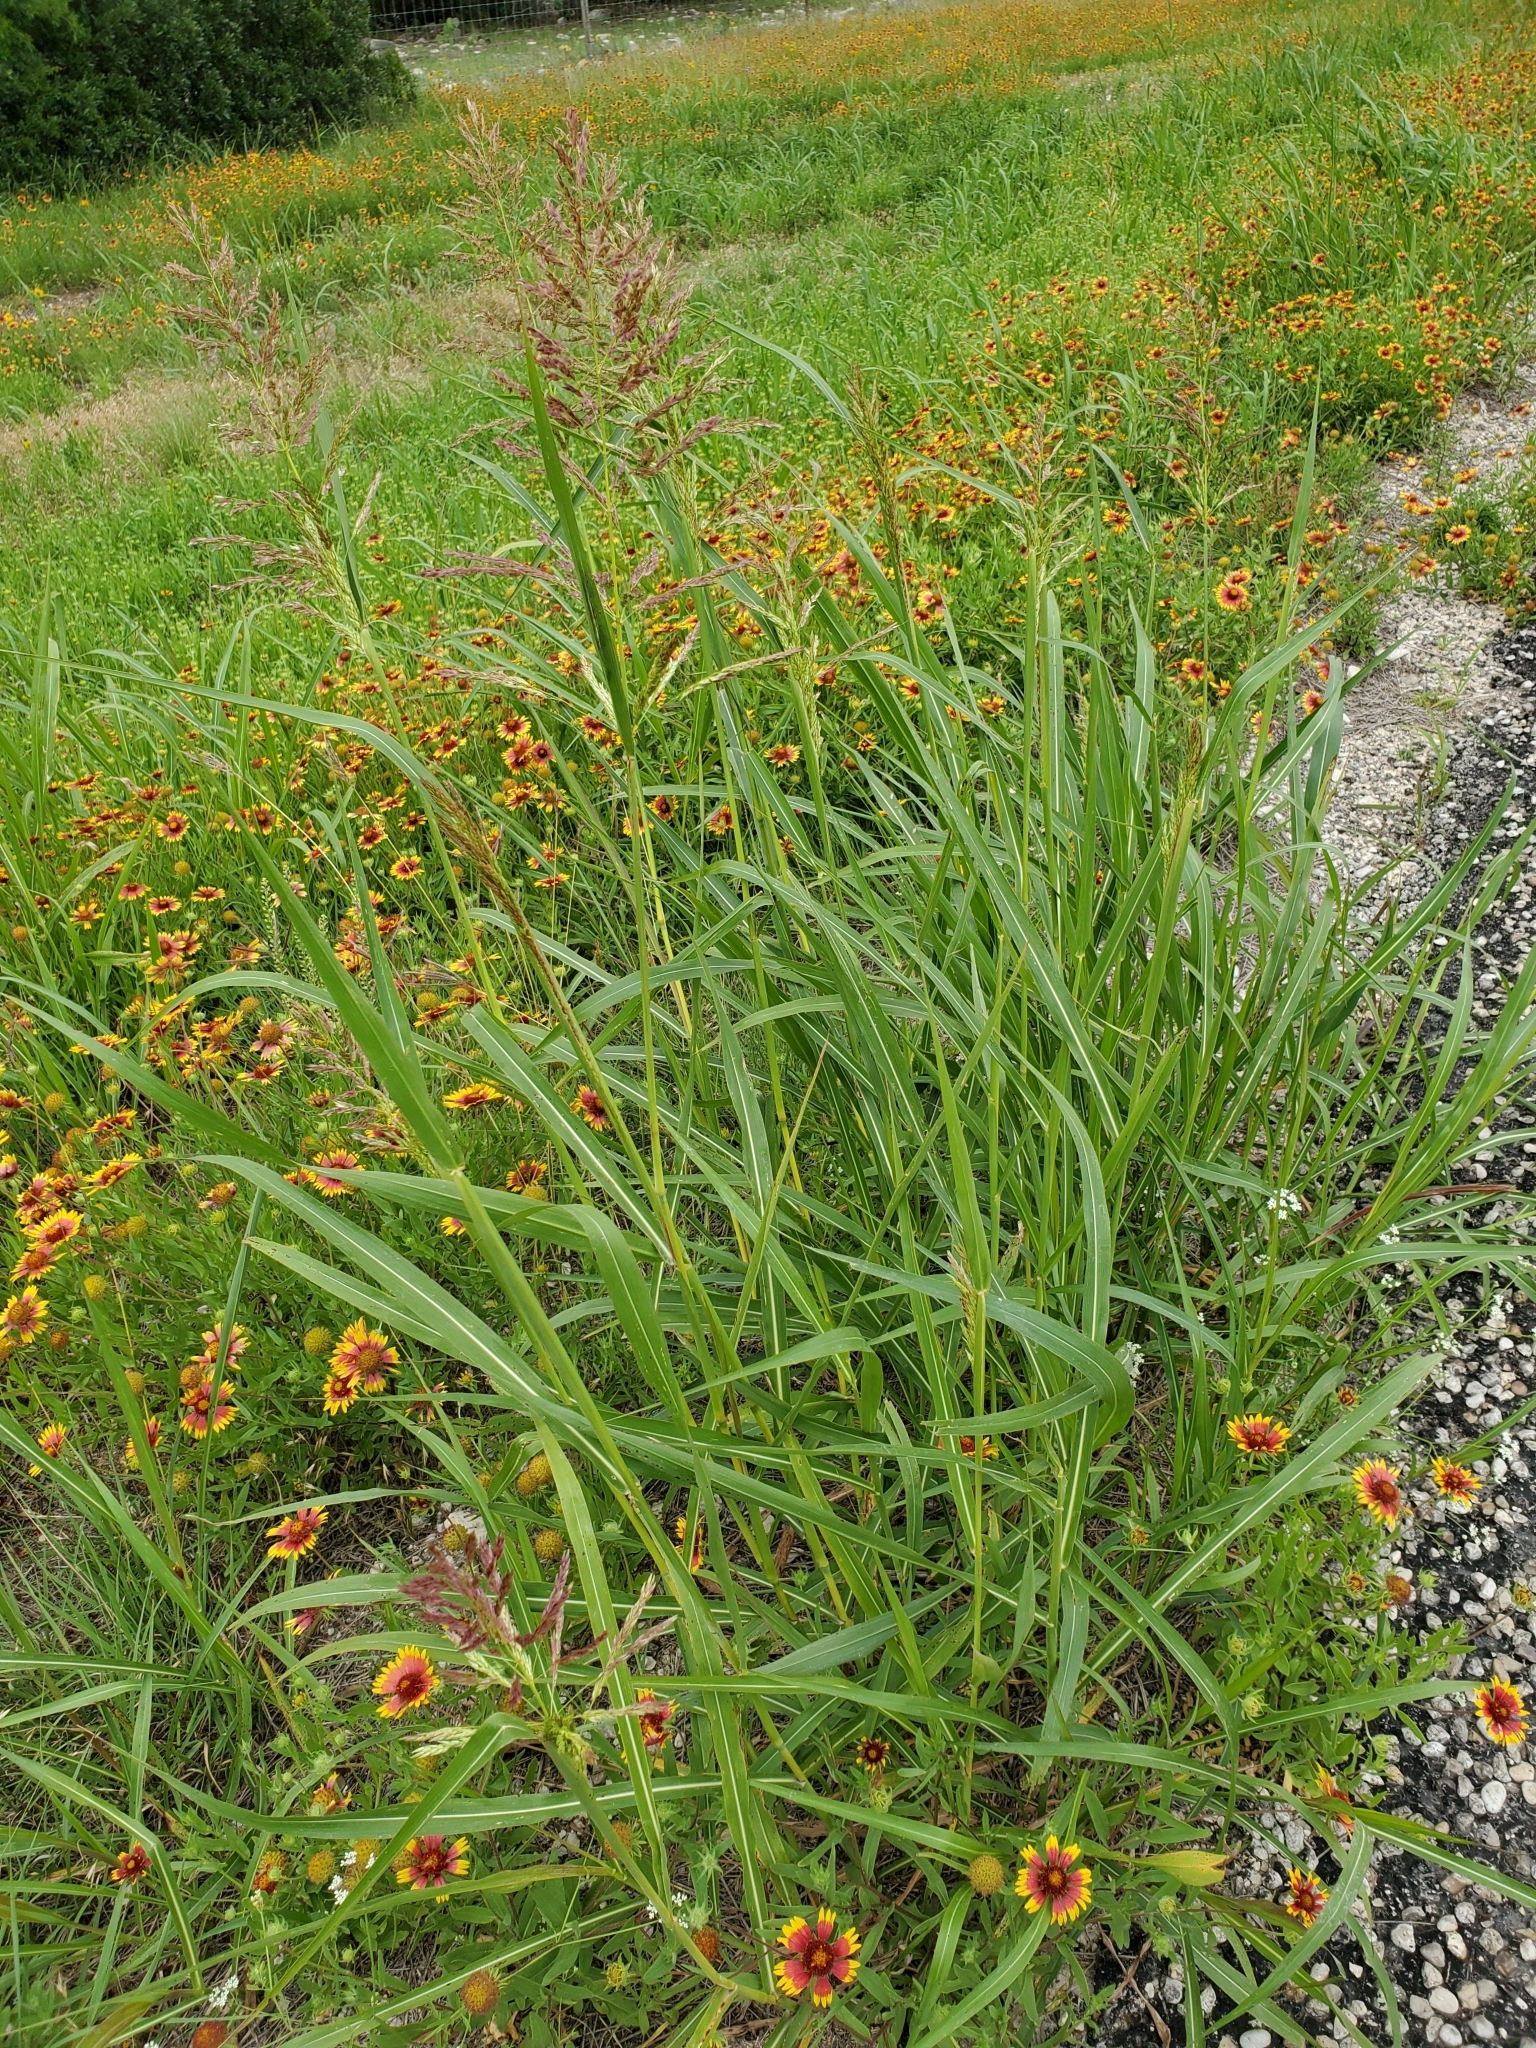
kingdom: Plantae
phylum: Tracheophyta
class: Liliopsida
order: Poales
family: Poaceae
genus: Sorghum
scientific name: Sorghum halepense
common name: Johnson-grass
